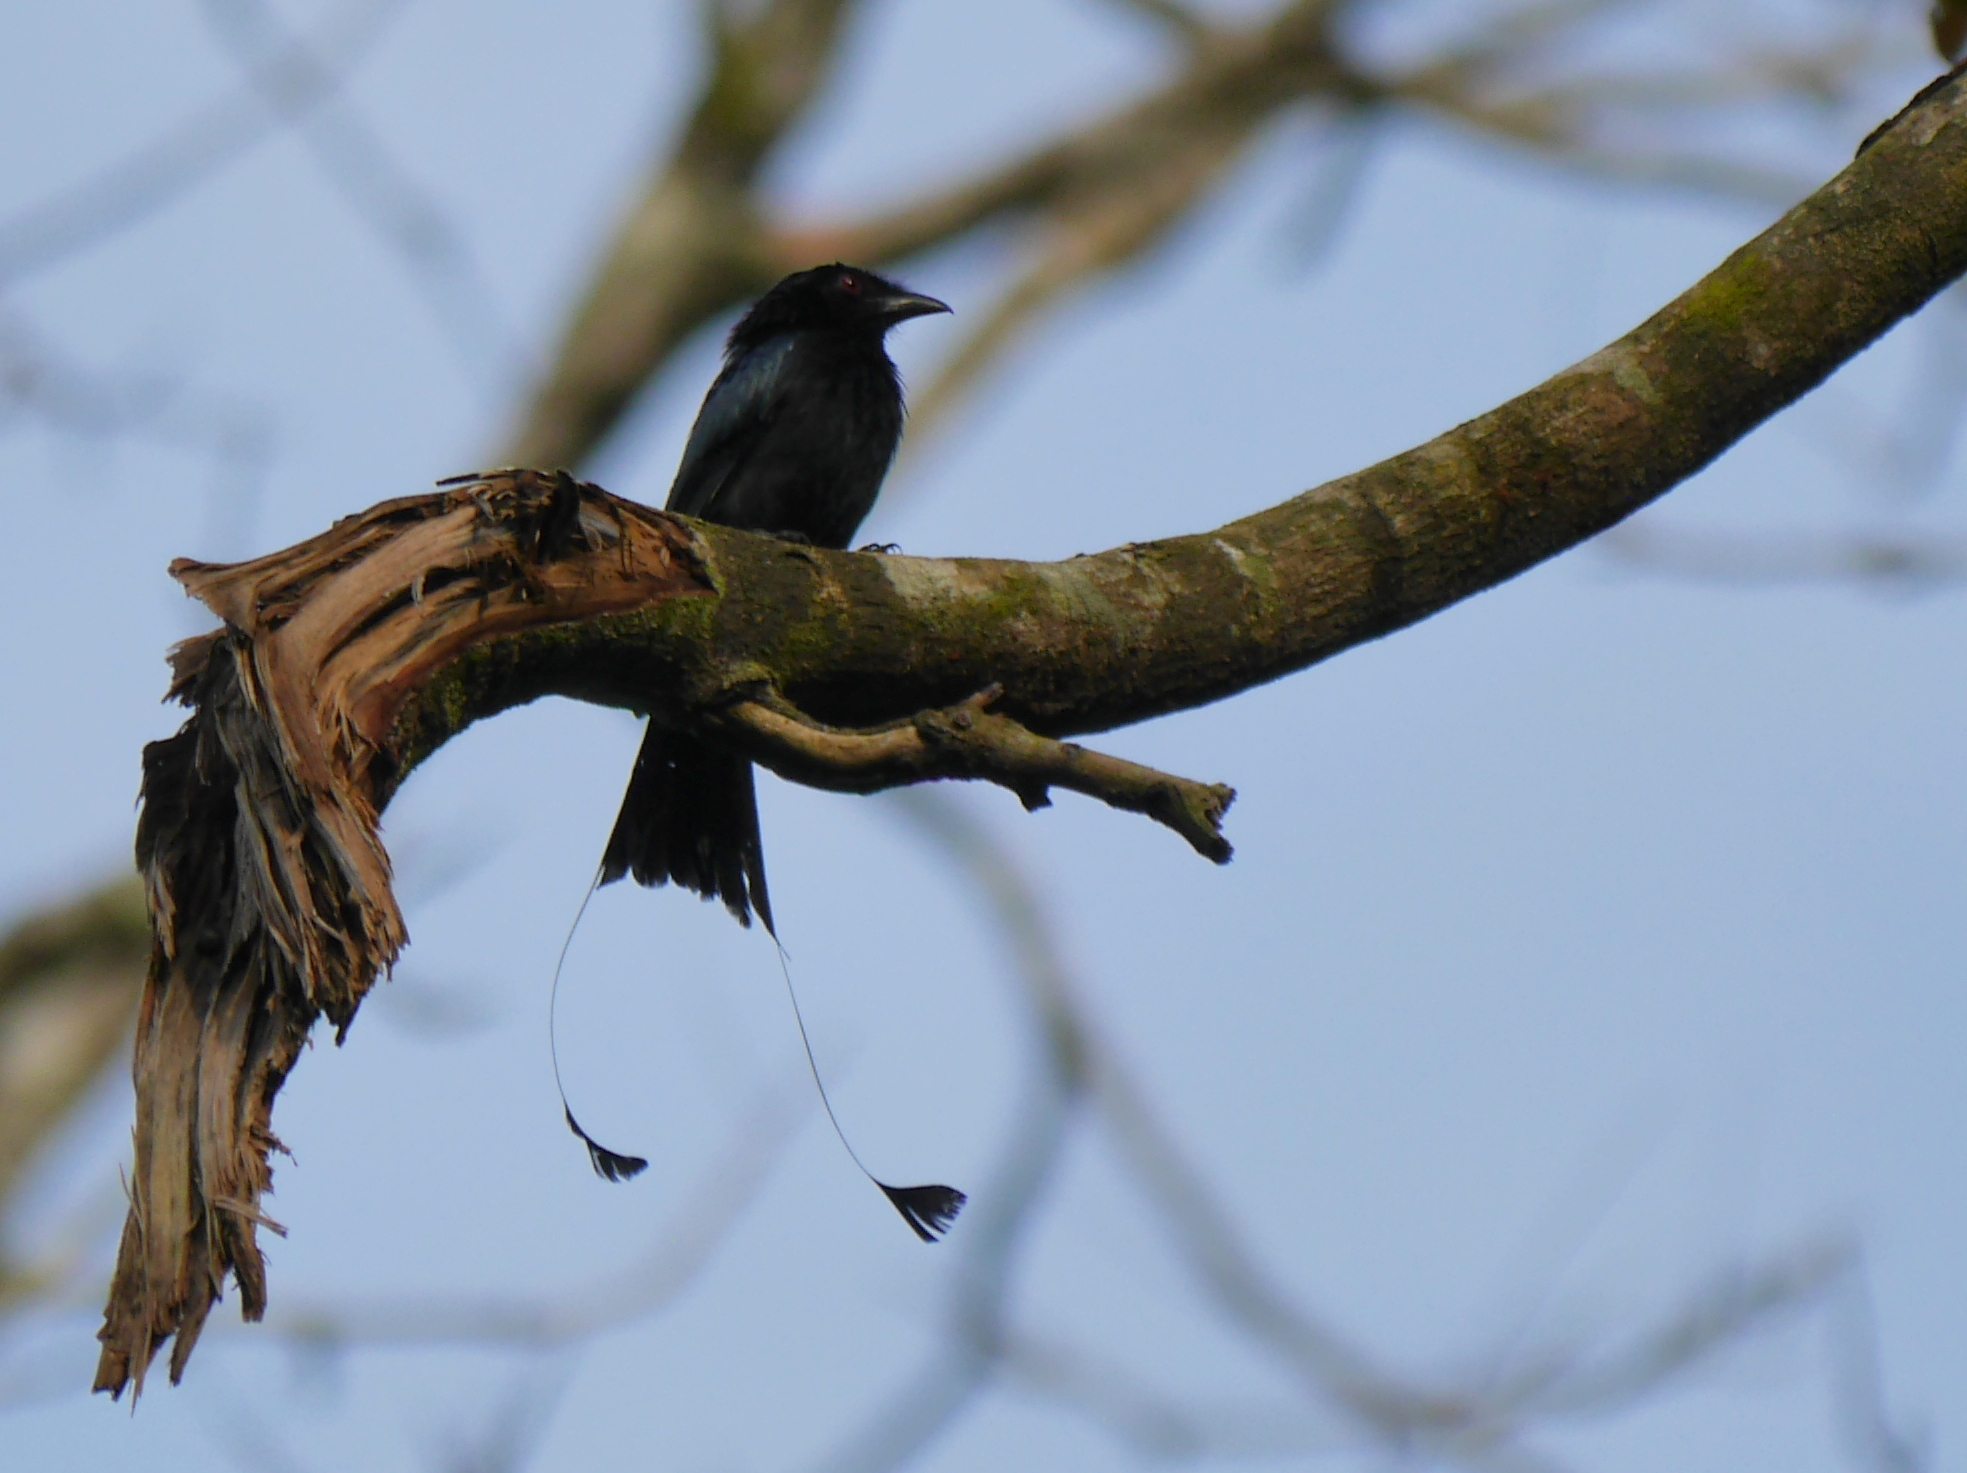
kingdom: Animalia
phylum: Chordata
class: Aves
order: Passeriformes
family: Dicruridae
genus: Dicrurus
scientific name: Dicrurus paradiseus
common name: Greater racket-tailed drongo
